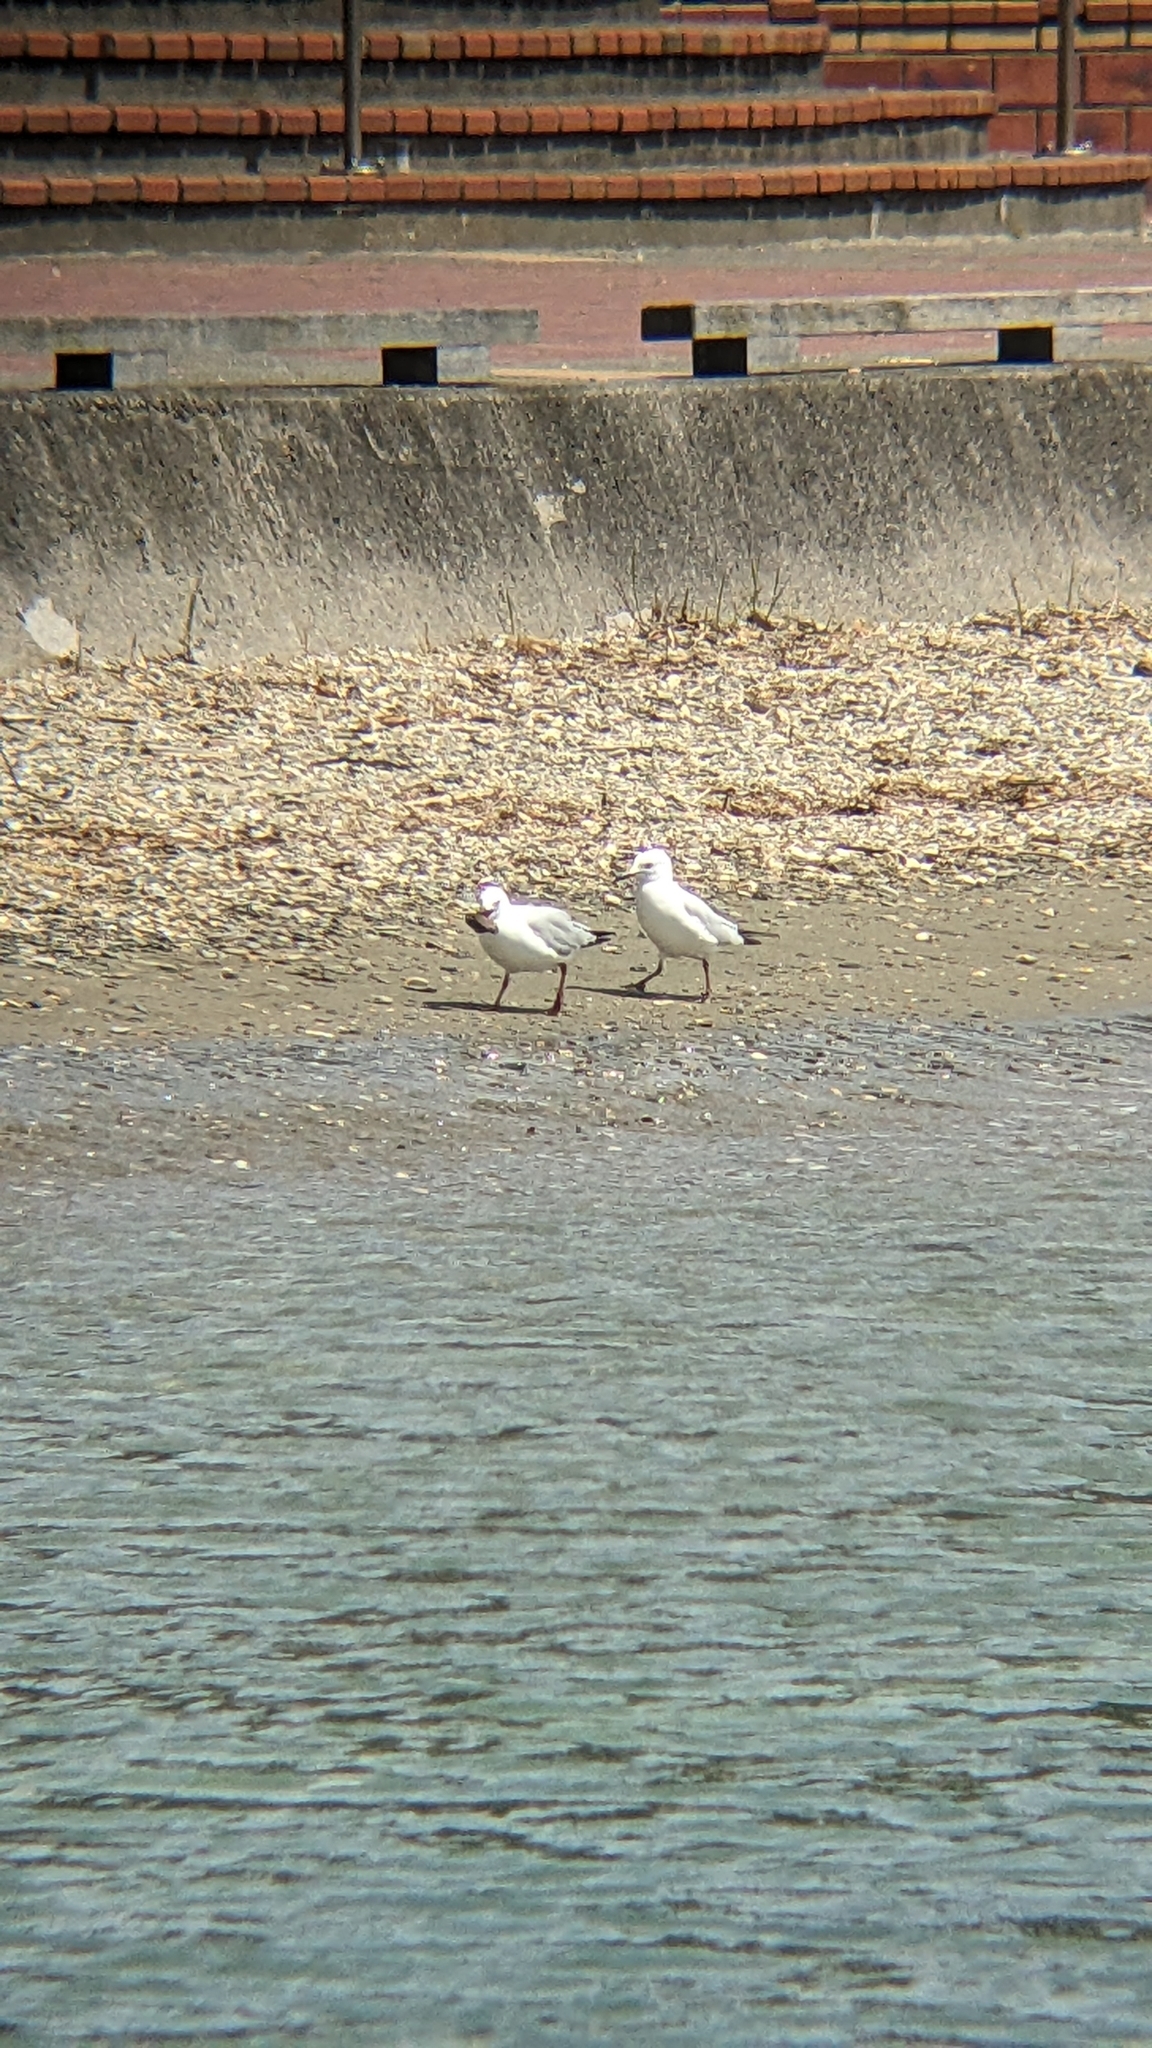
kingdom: Animalia
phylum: Chordata
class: Aves
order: Charadriiformes
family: Laridae
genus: Chroicocephalus
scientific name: Chroicocephalus bulleri
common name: Black-billed gull
